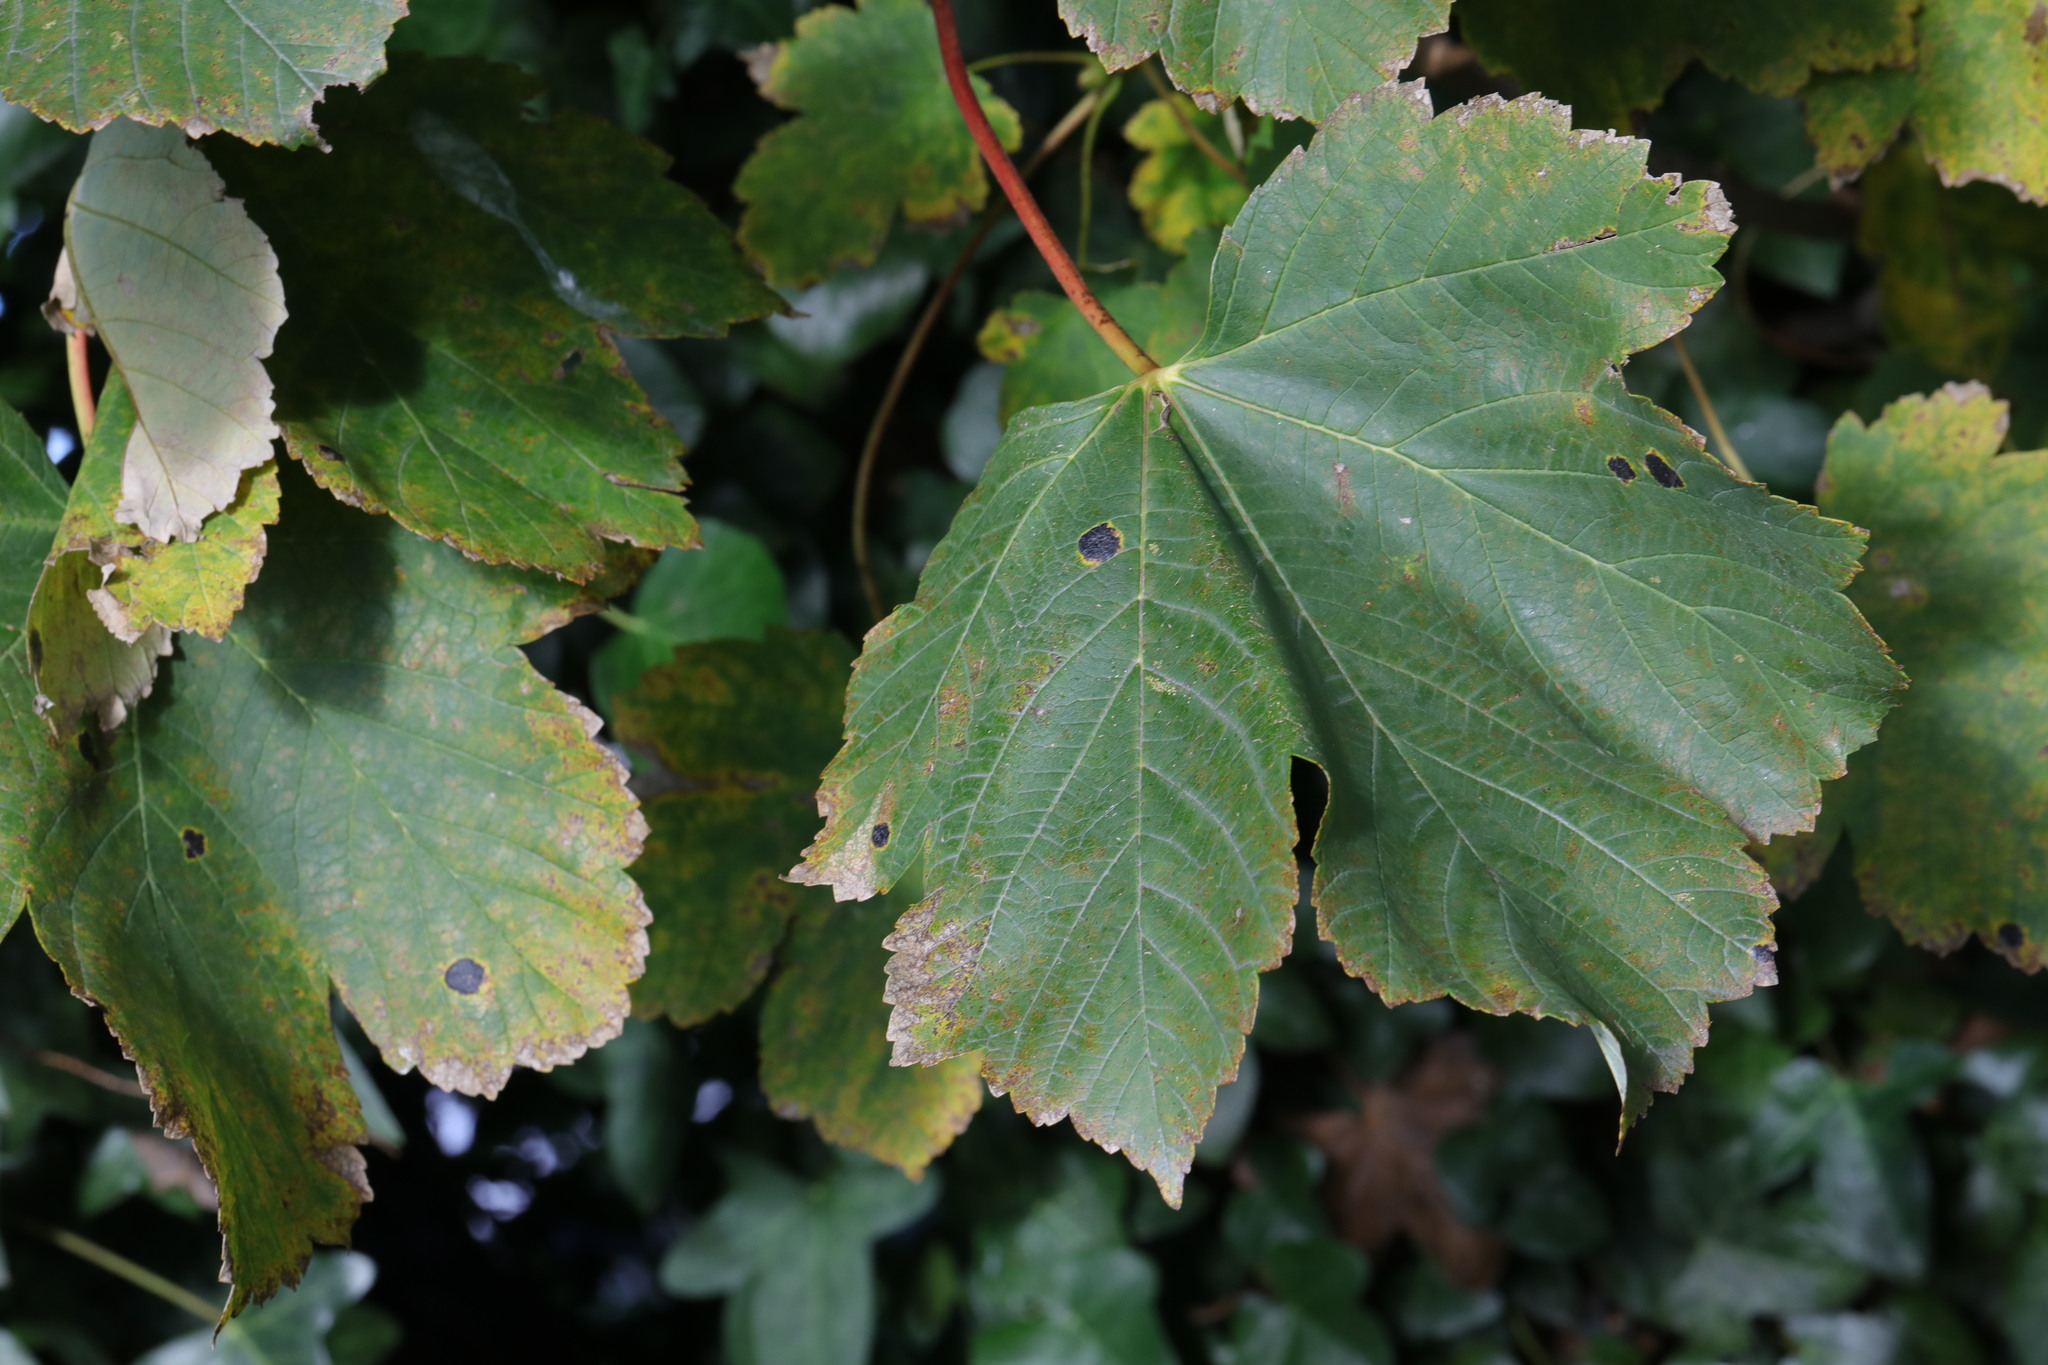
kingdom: Plantae
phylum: Tracheophyta
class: Magnoliopsida
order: Sapindales
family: Sapindaceae
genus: Acer
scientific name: Acer pseudoplatanus
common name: Sycamore
